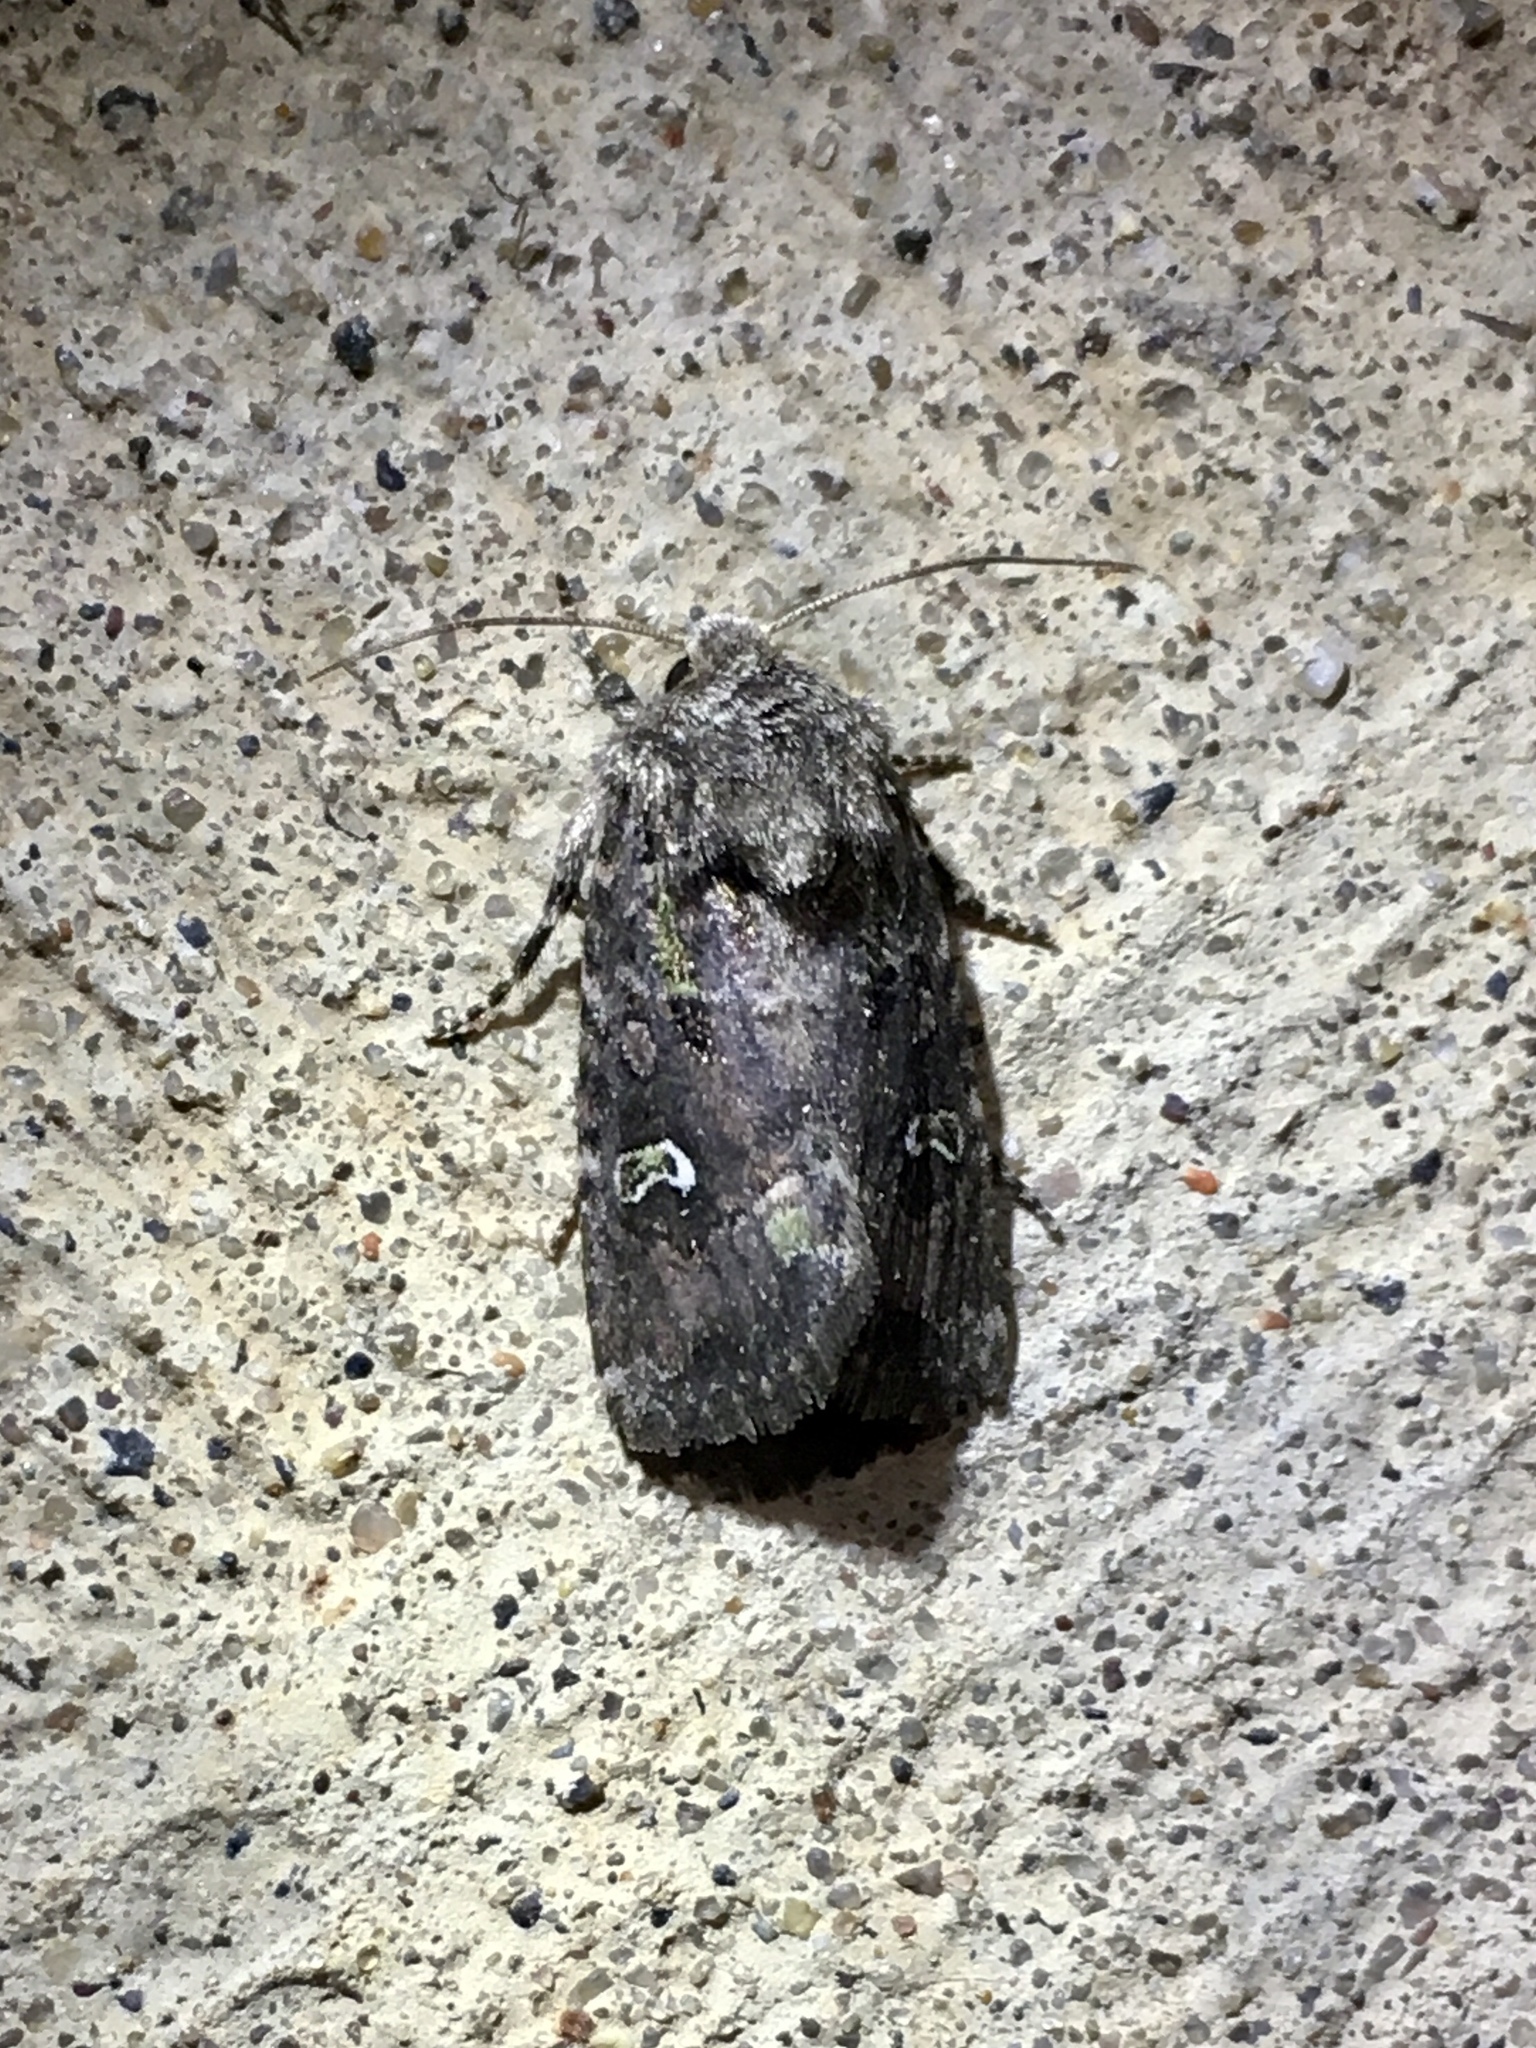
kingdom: Animalia
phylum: Arthropoda
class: Insecta
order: Lepidoptera
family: Noctuidae
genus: Lacinipolia
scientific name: Lacinipolia renigera
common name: Kidney-spotted minor
